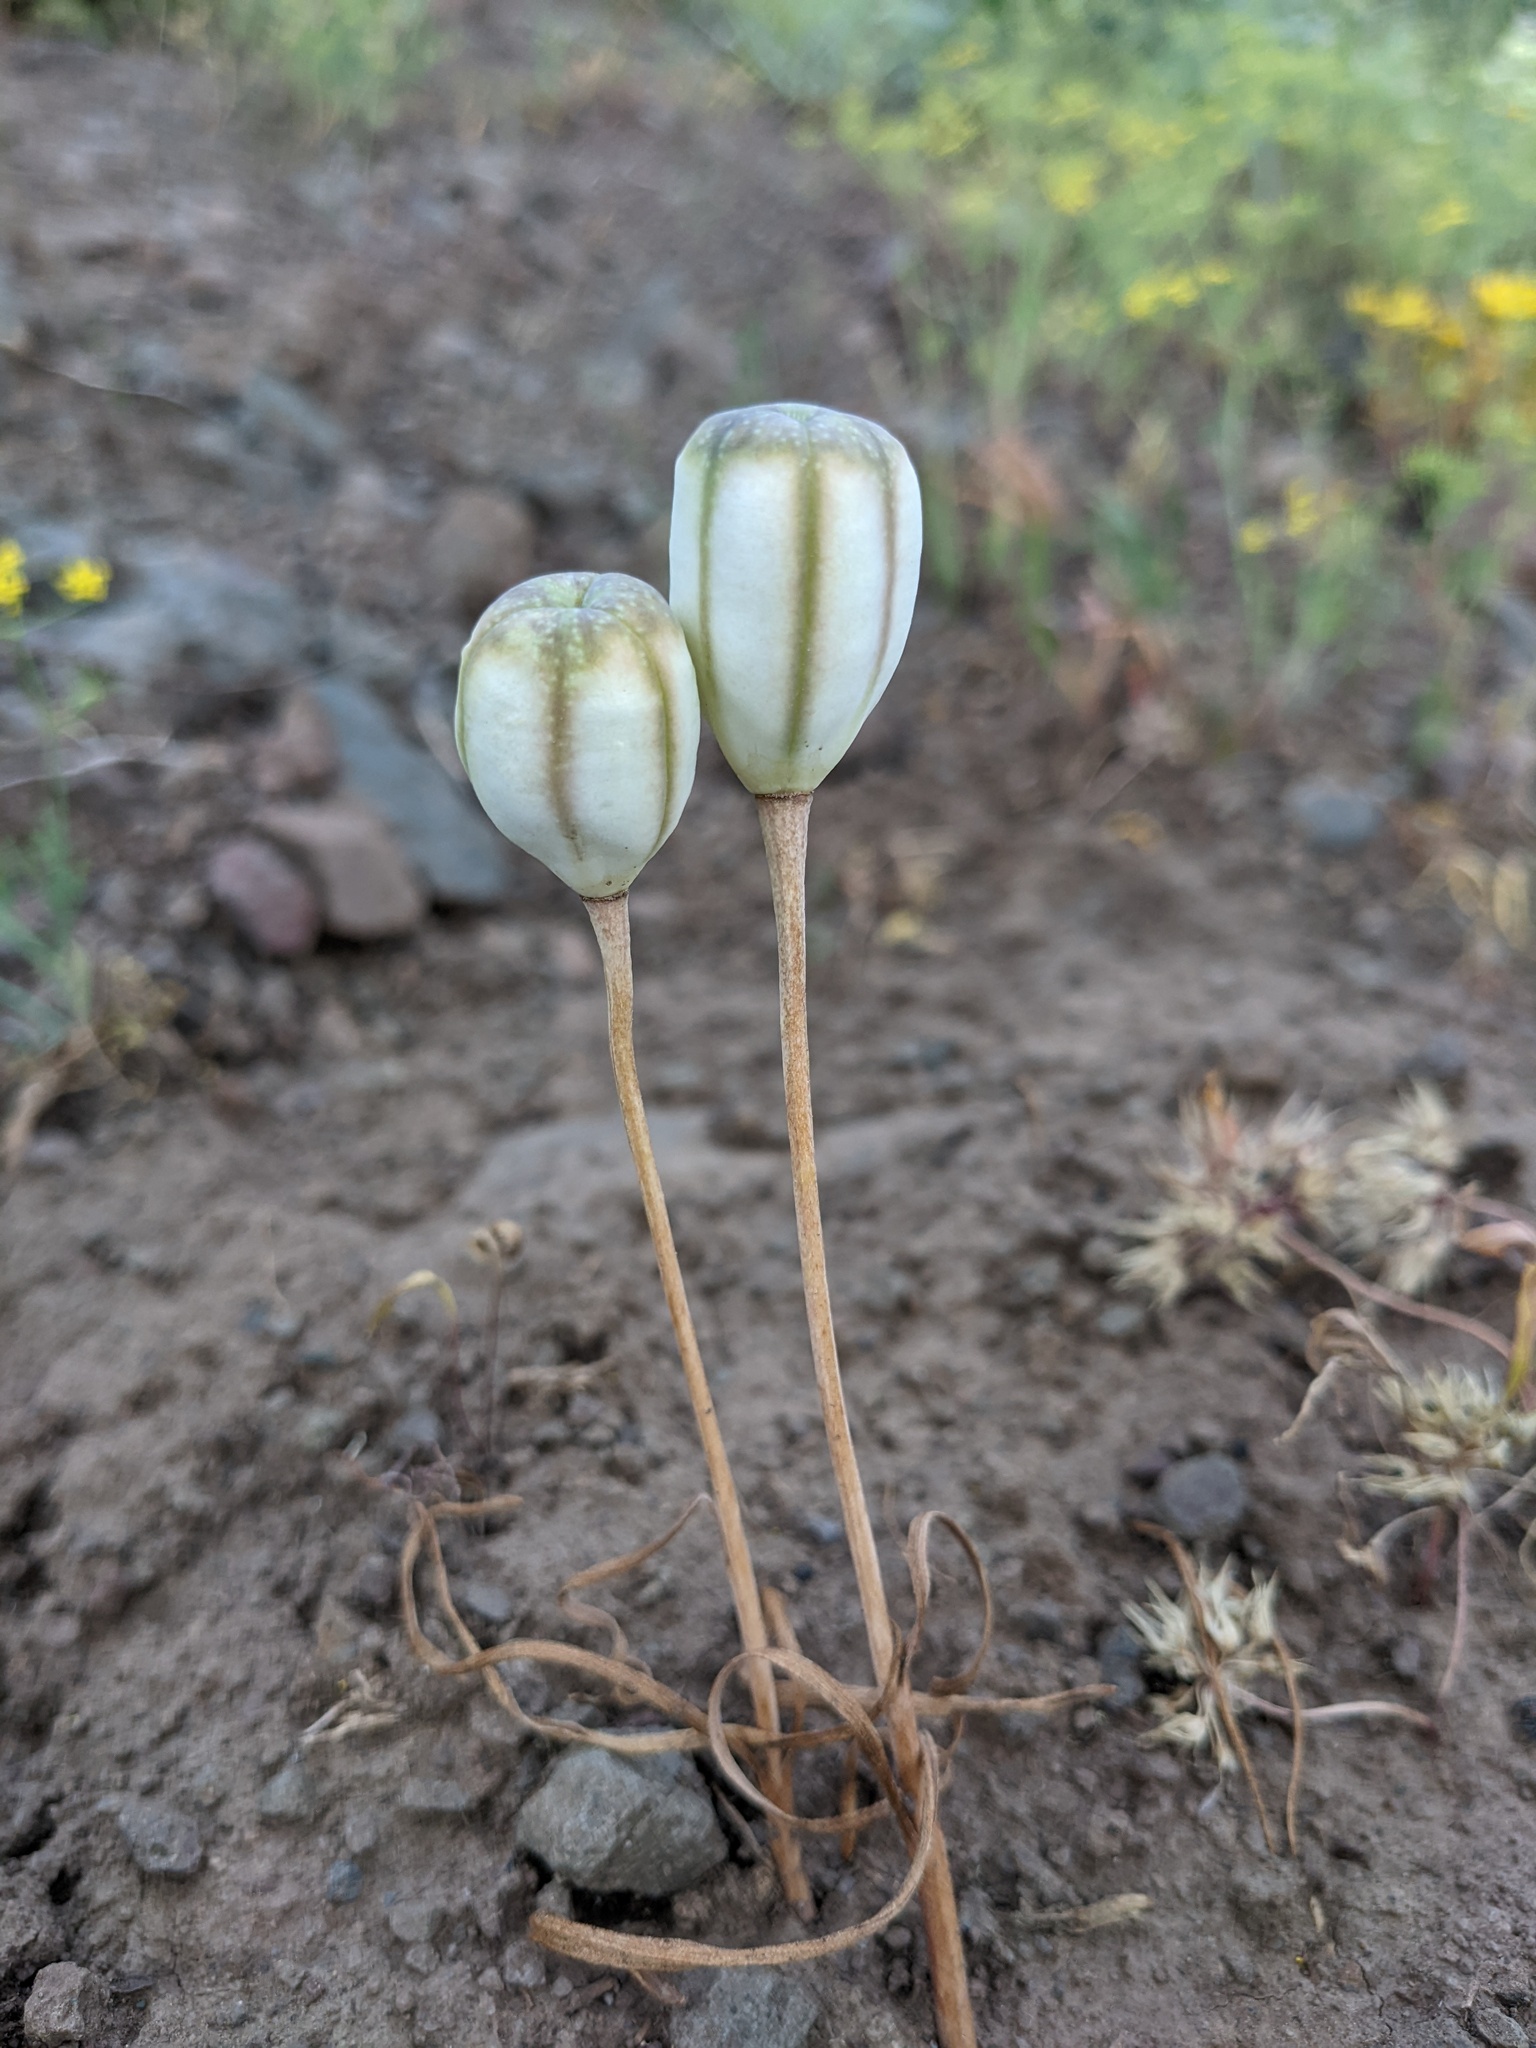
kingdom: Plantae
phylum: Tracheophyta
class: Liliopsida
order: Liliales
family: Liliaceae
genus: Fritillaria
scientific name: Fritillaria pudica
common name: Yellow fritillary
